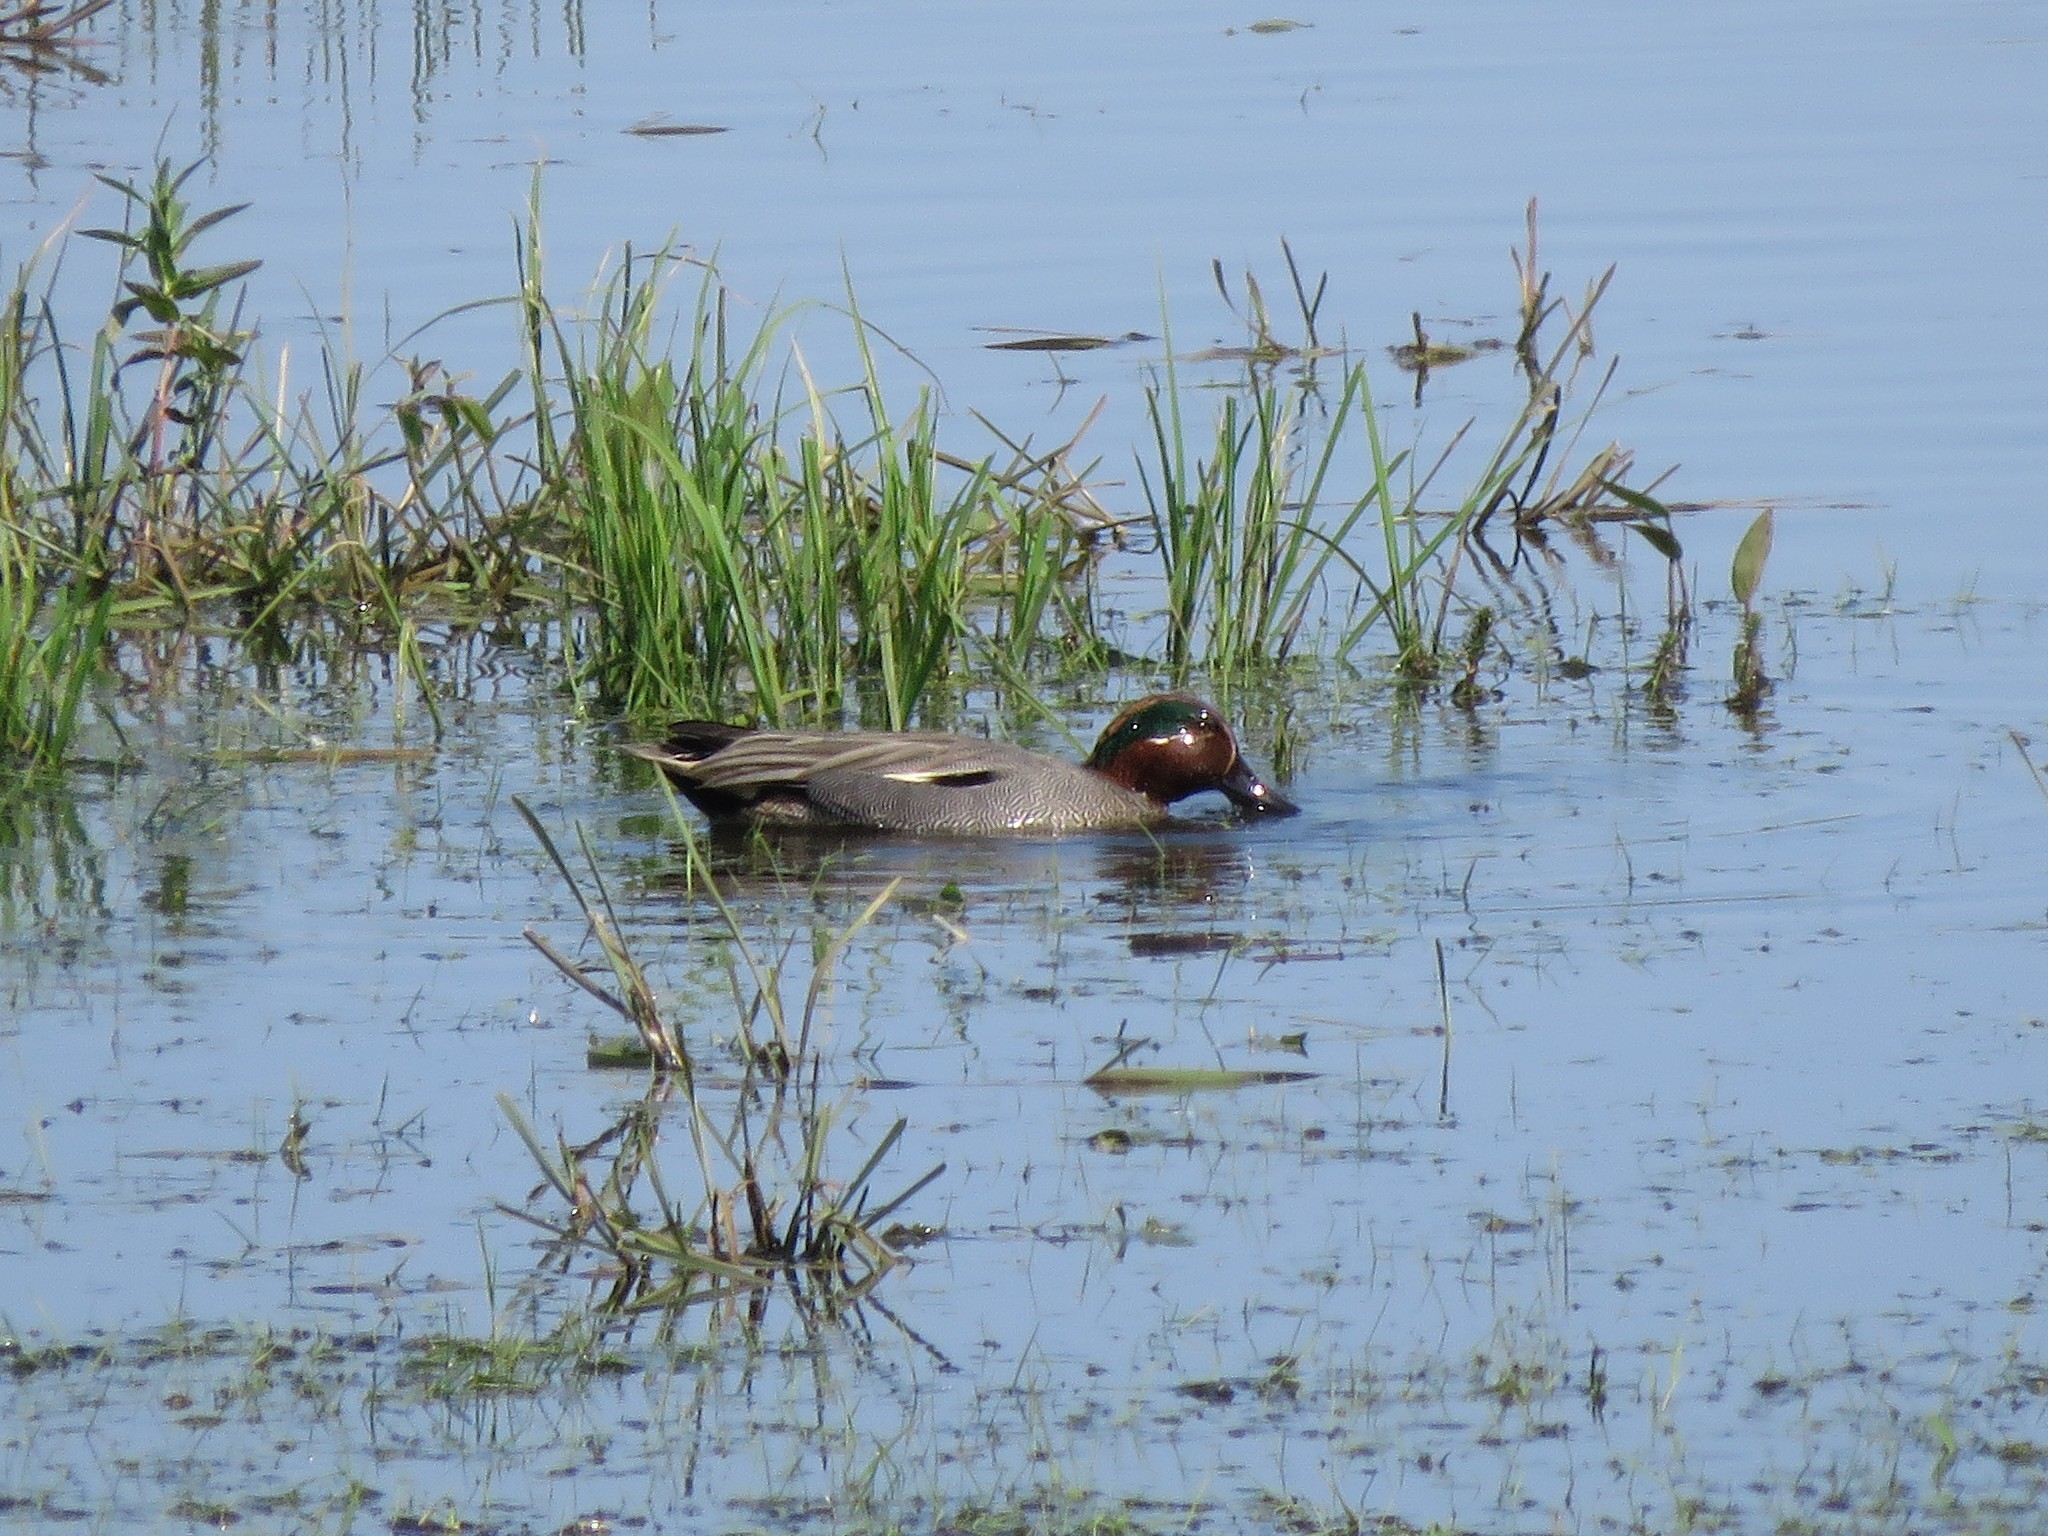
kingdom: Animalia
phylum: Chordata
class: Aves
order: Anseriformes
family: Anatidae
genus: Anas
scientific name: Anas crecca
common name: Eurasian teal
